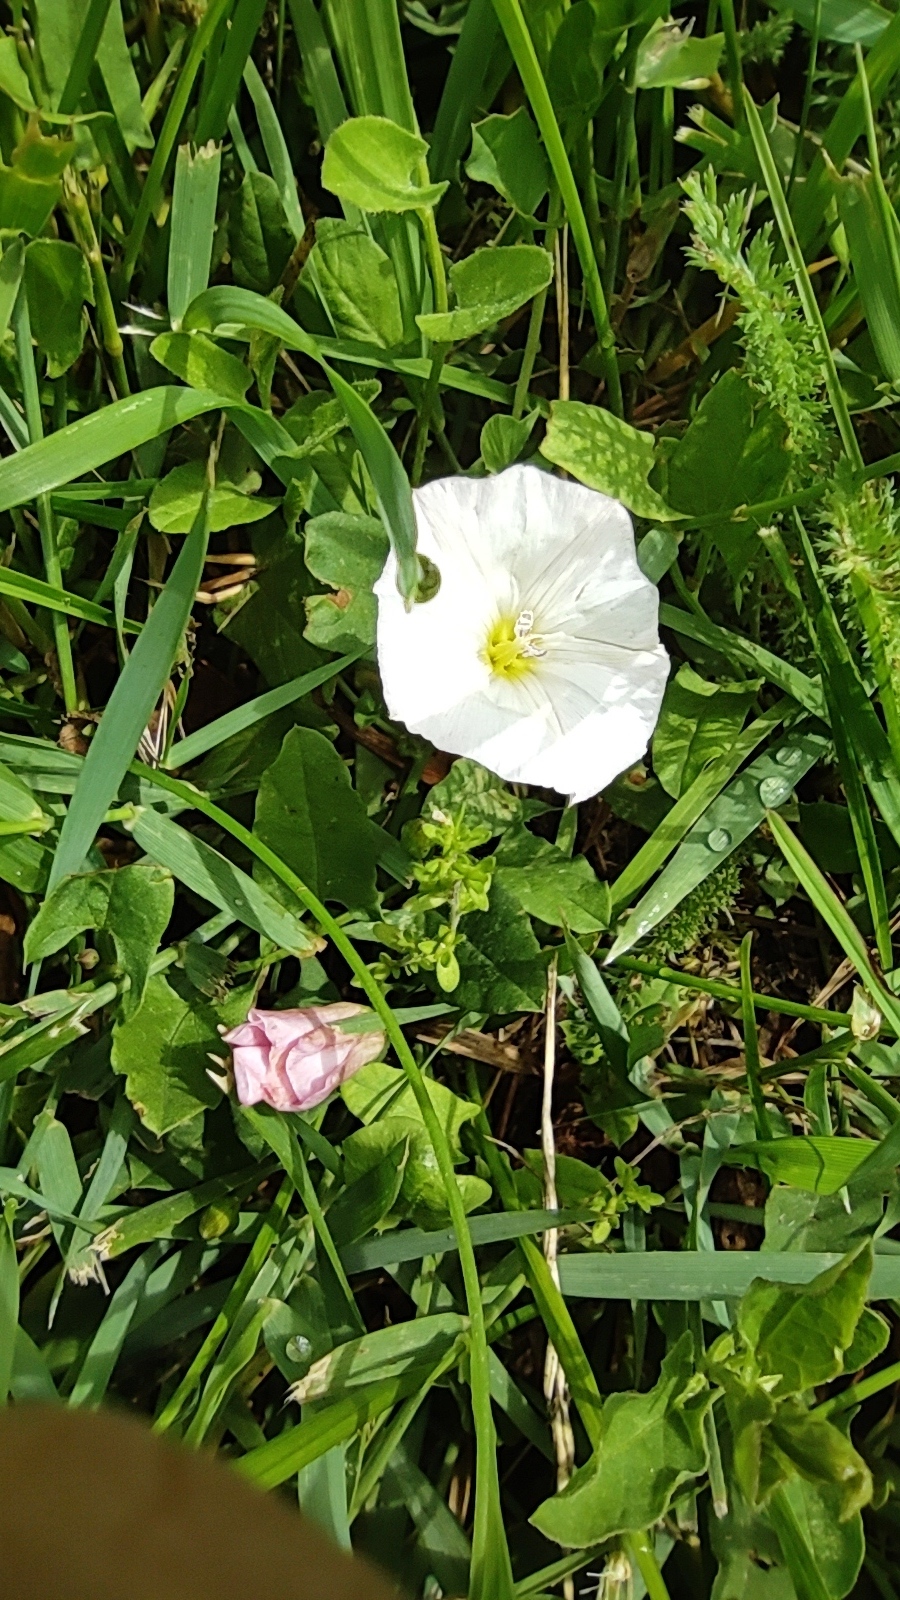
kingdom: Plantae
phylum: Tracheophyta
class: Magnoliopsida
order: Solanales
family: Convolvulaceae
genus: Convolvulus
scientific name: Convolvulus arvensis
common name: Field bindweed
